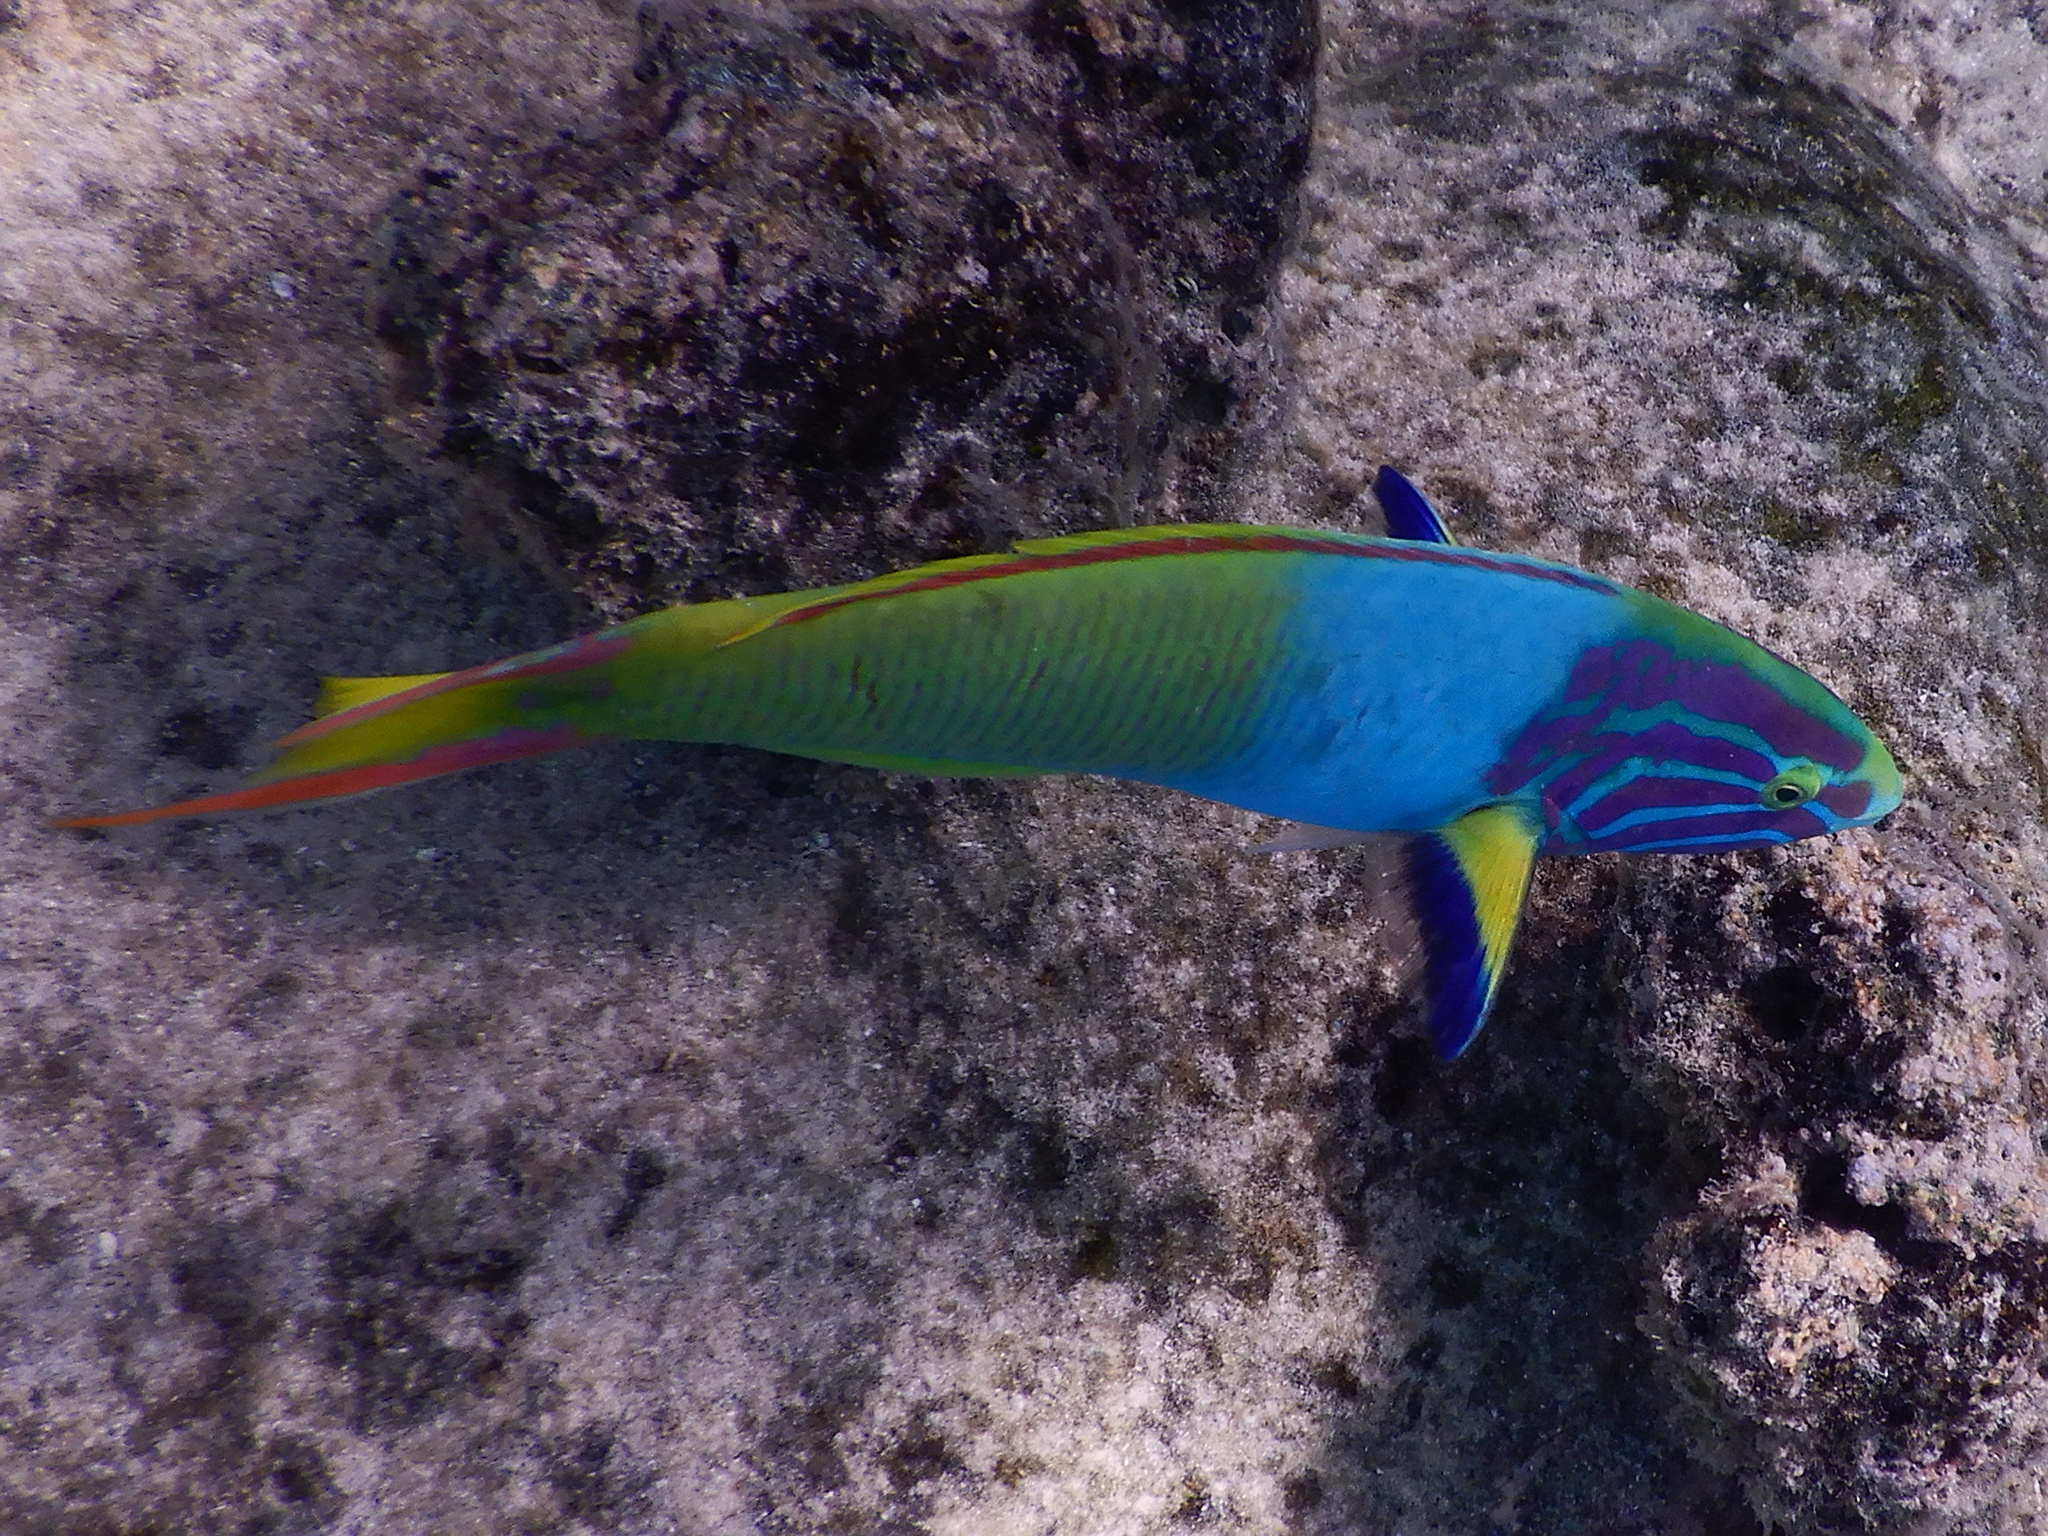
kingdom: Animalia
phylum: Chordata
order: Perciformes
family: Labridae
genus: Thalassoma
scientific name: Thalassoma lutescens
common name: Green moon wrasse
